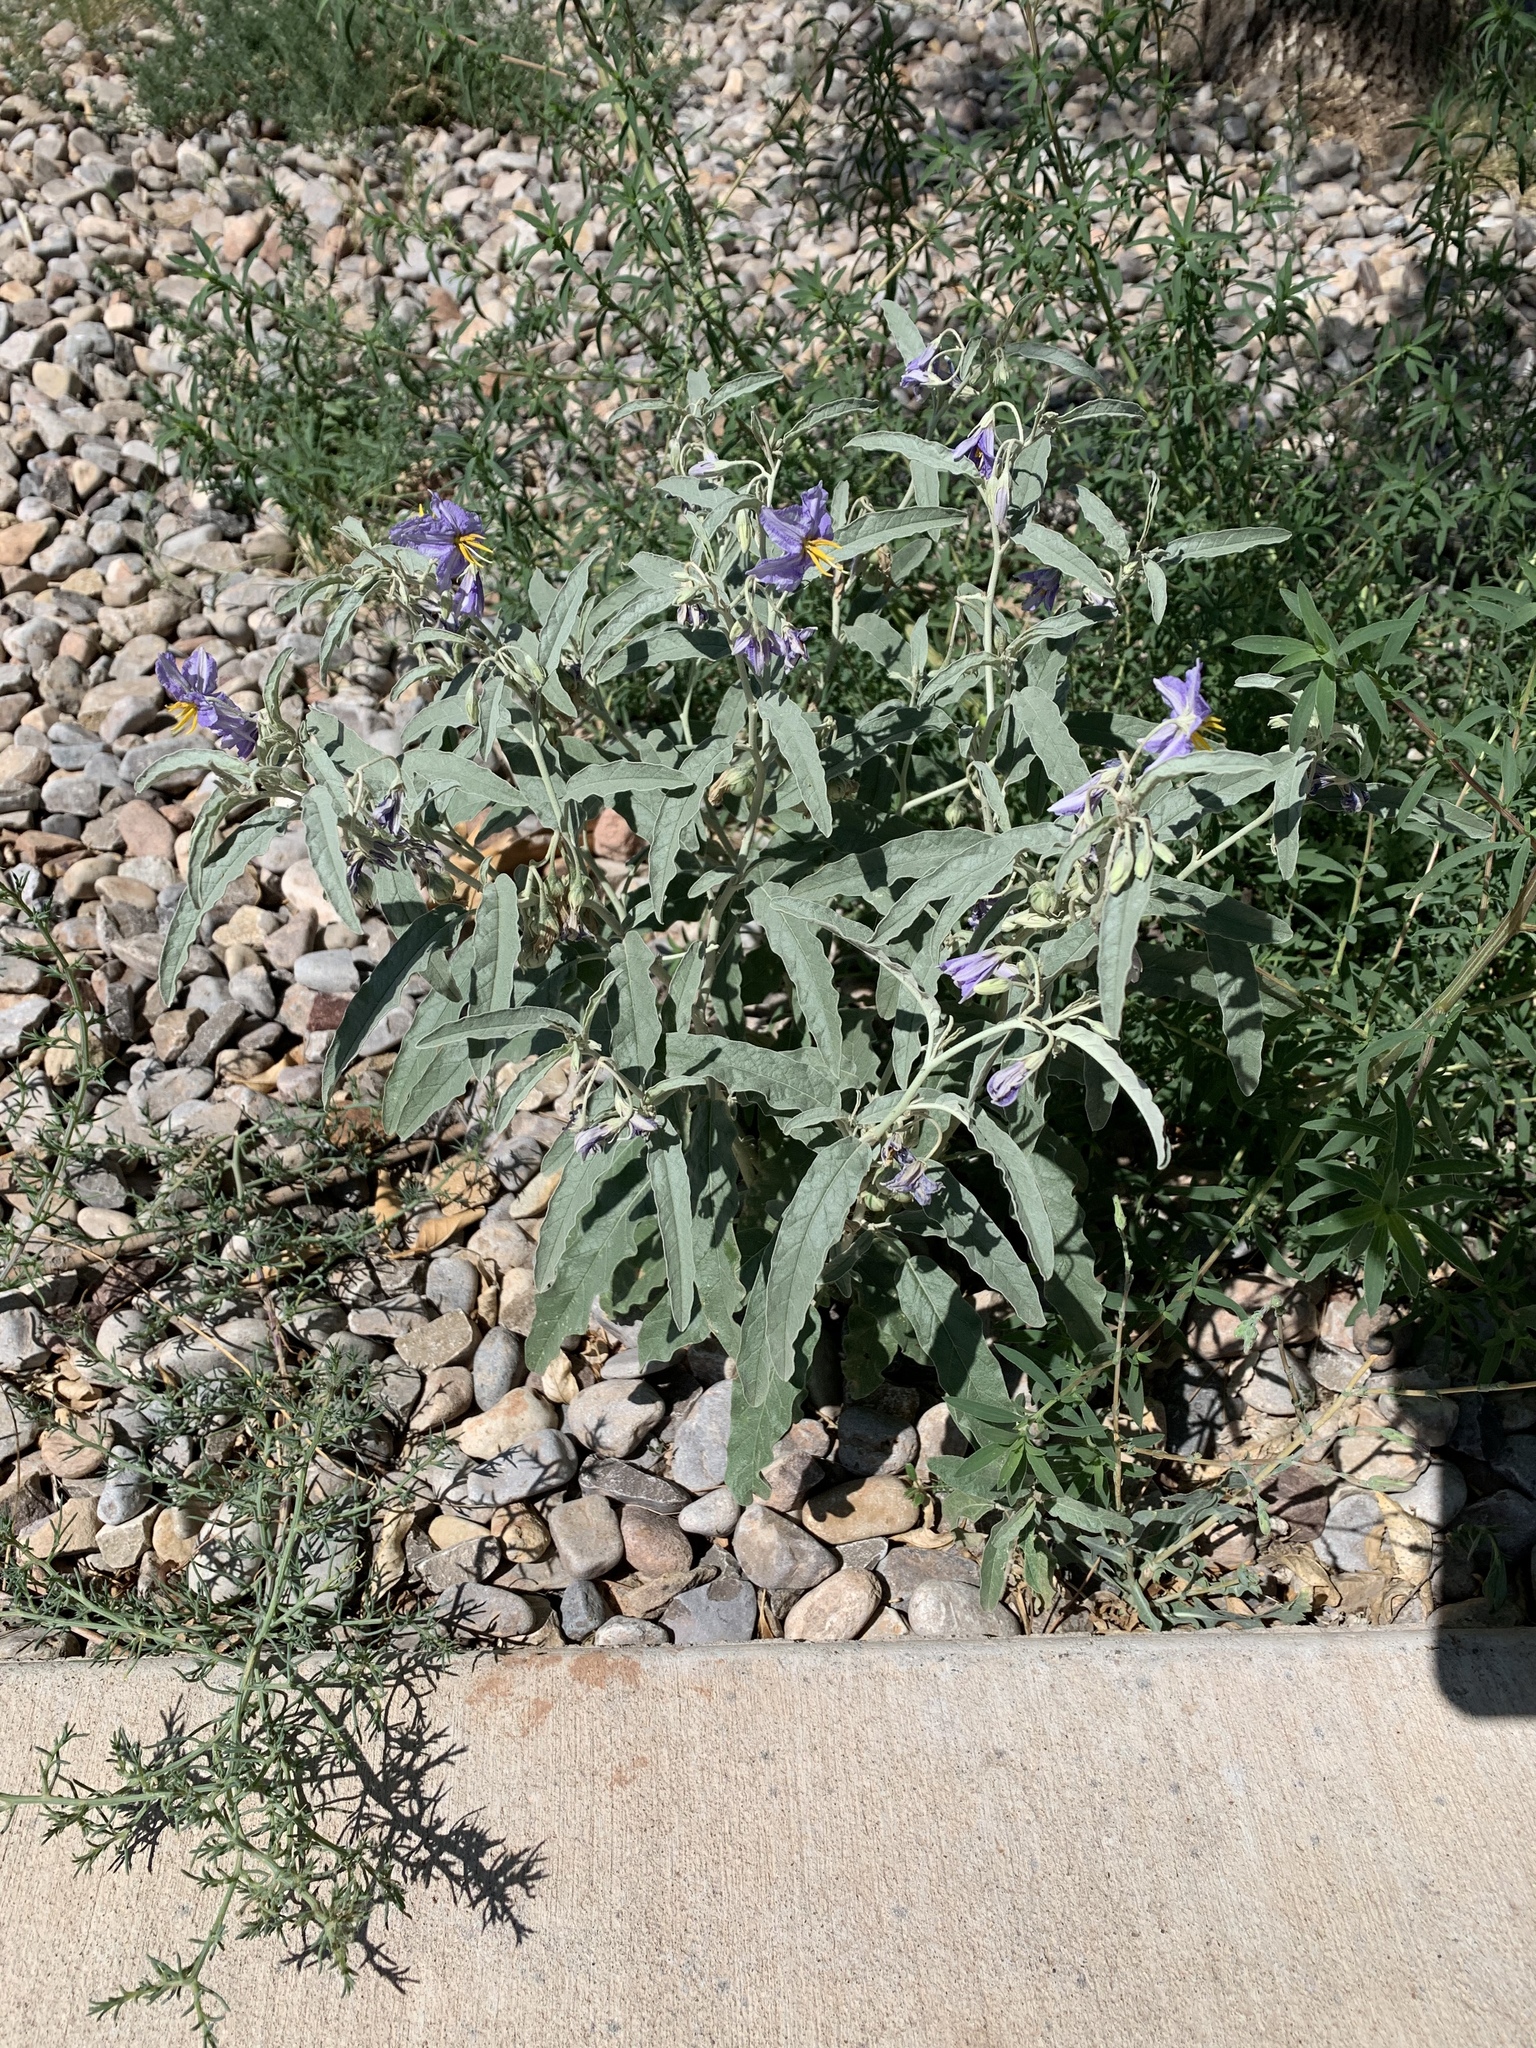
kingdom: Plantae
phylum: Tracheophyta
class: Magnoliopsida
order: Solanales
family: Solanaceae
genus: Solanum
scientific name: Solanum elaeagnifolium
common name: Silverleaf nightshade
